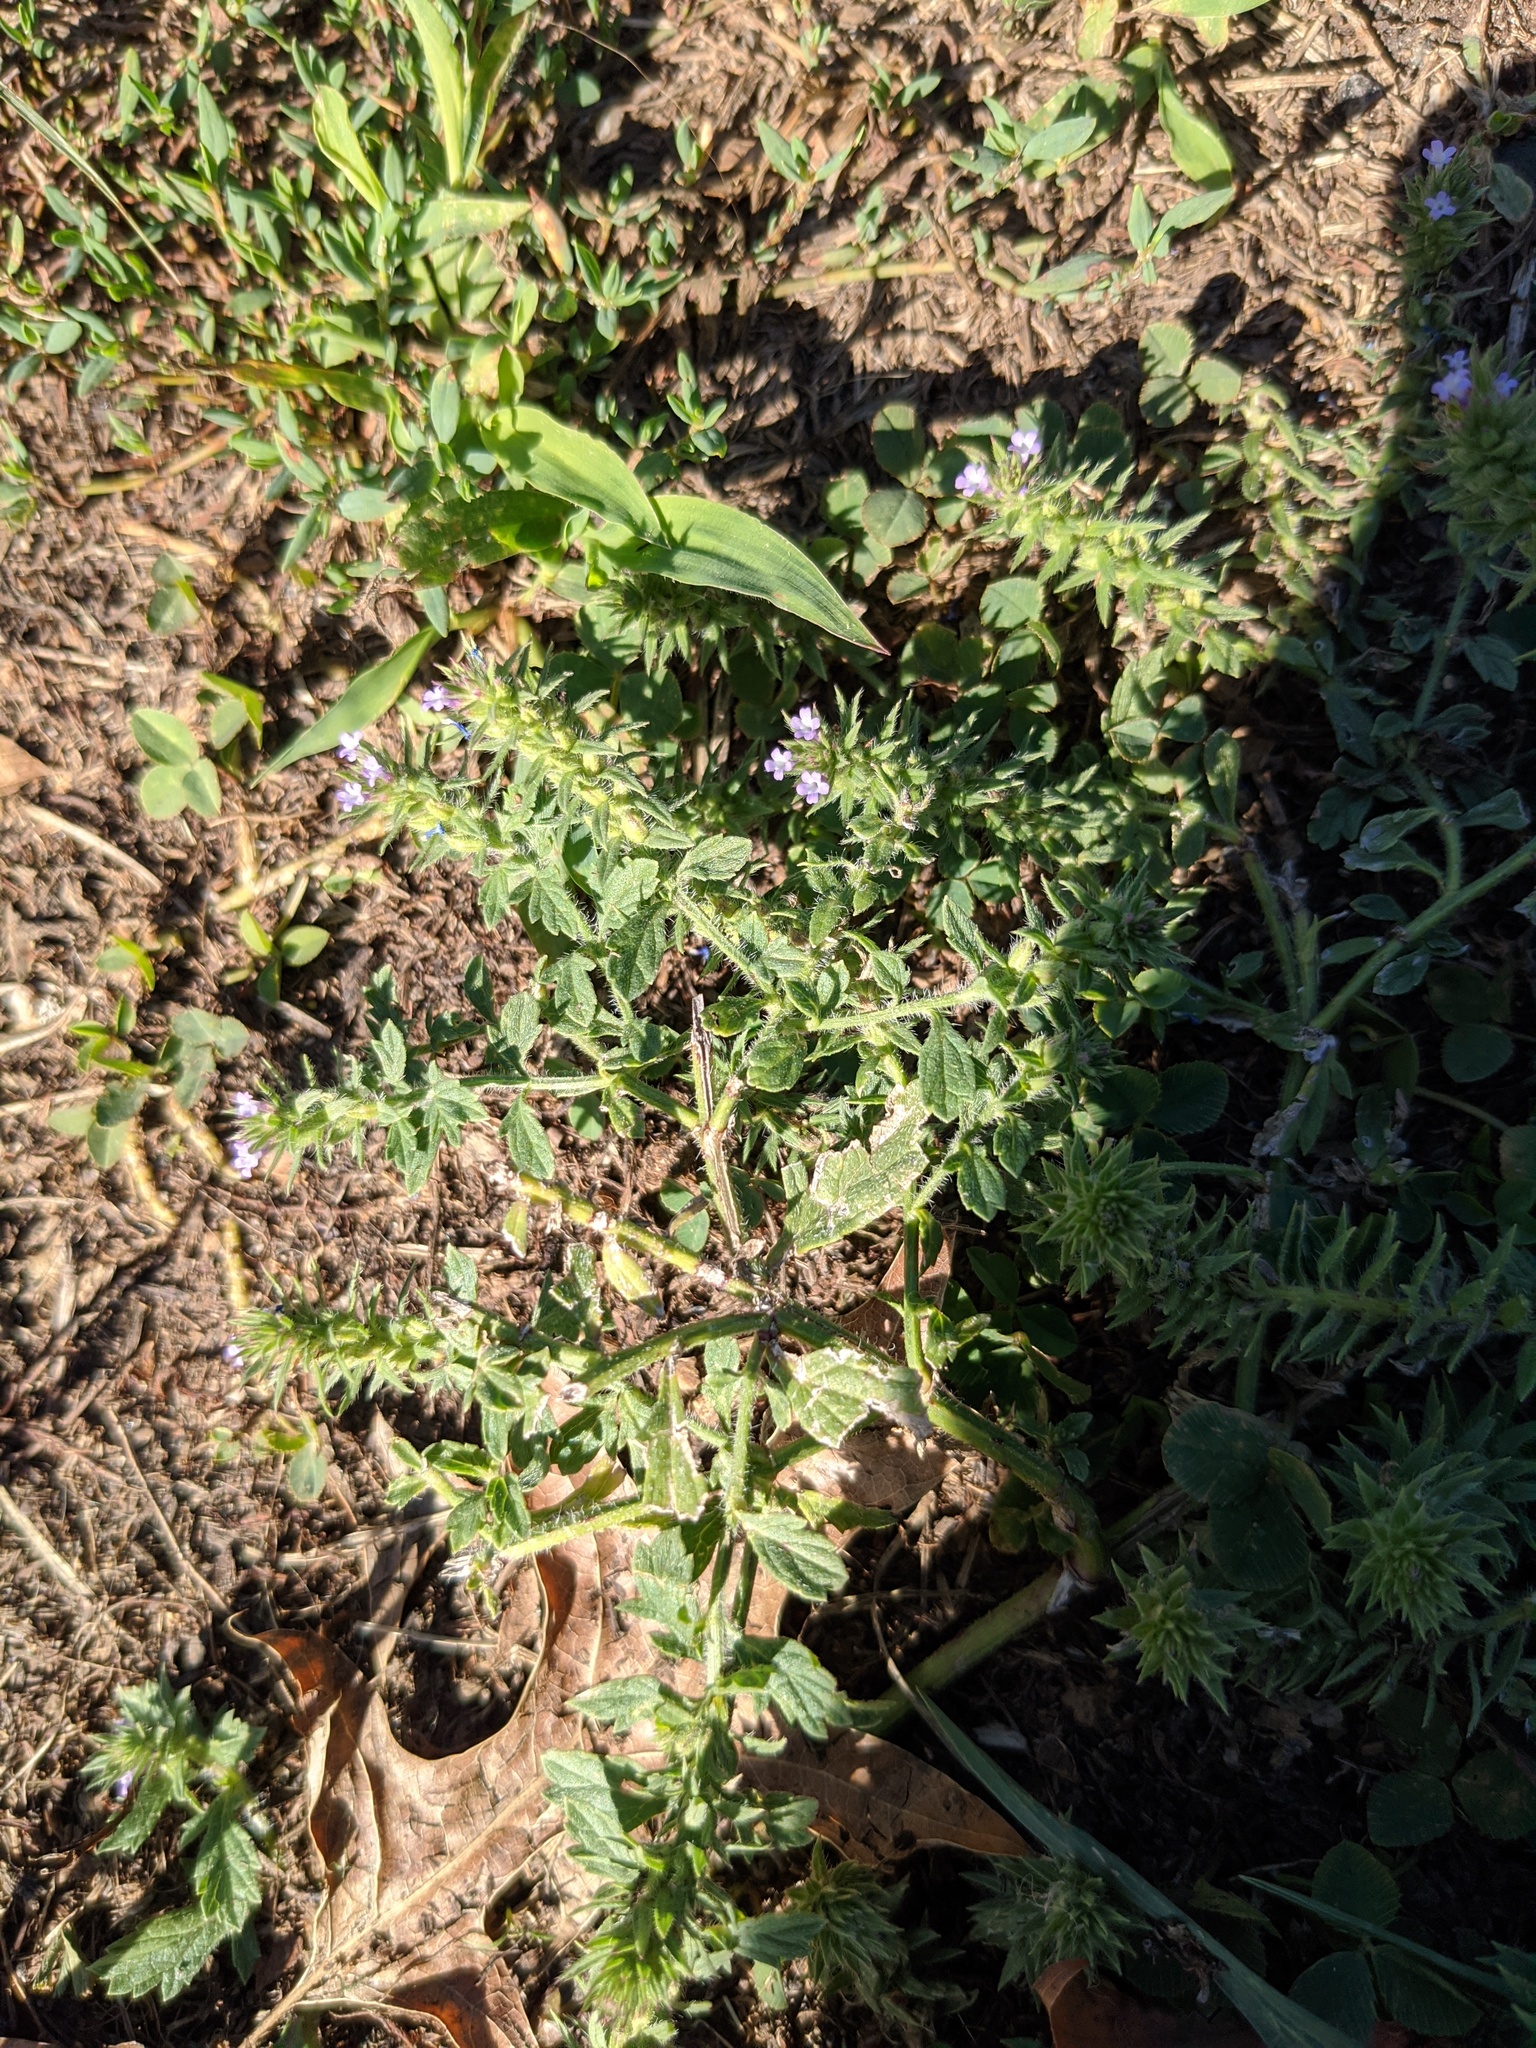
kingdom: Plantae
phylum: Tracheophyta
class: Magnoliopsida
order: Lamiales
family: Verbenaceae
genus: Verbena
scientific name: Verbena bracteata
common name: Bracted vervain
